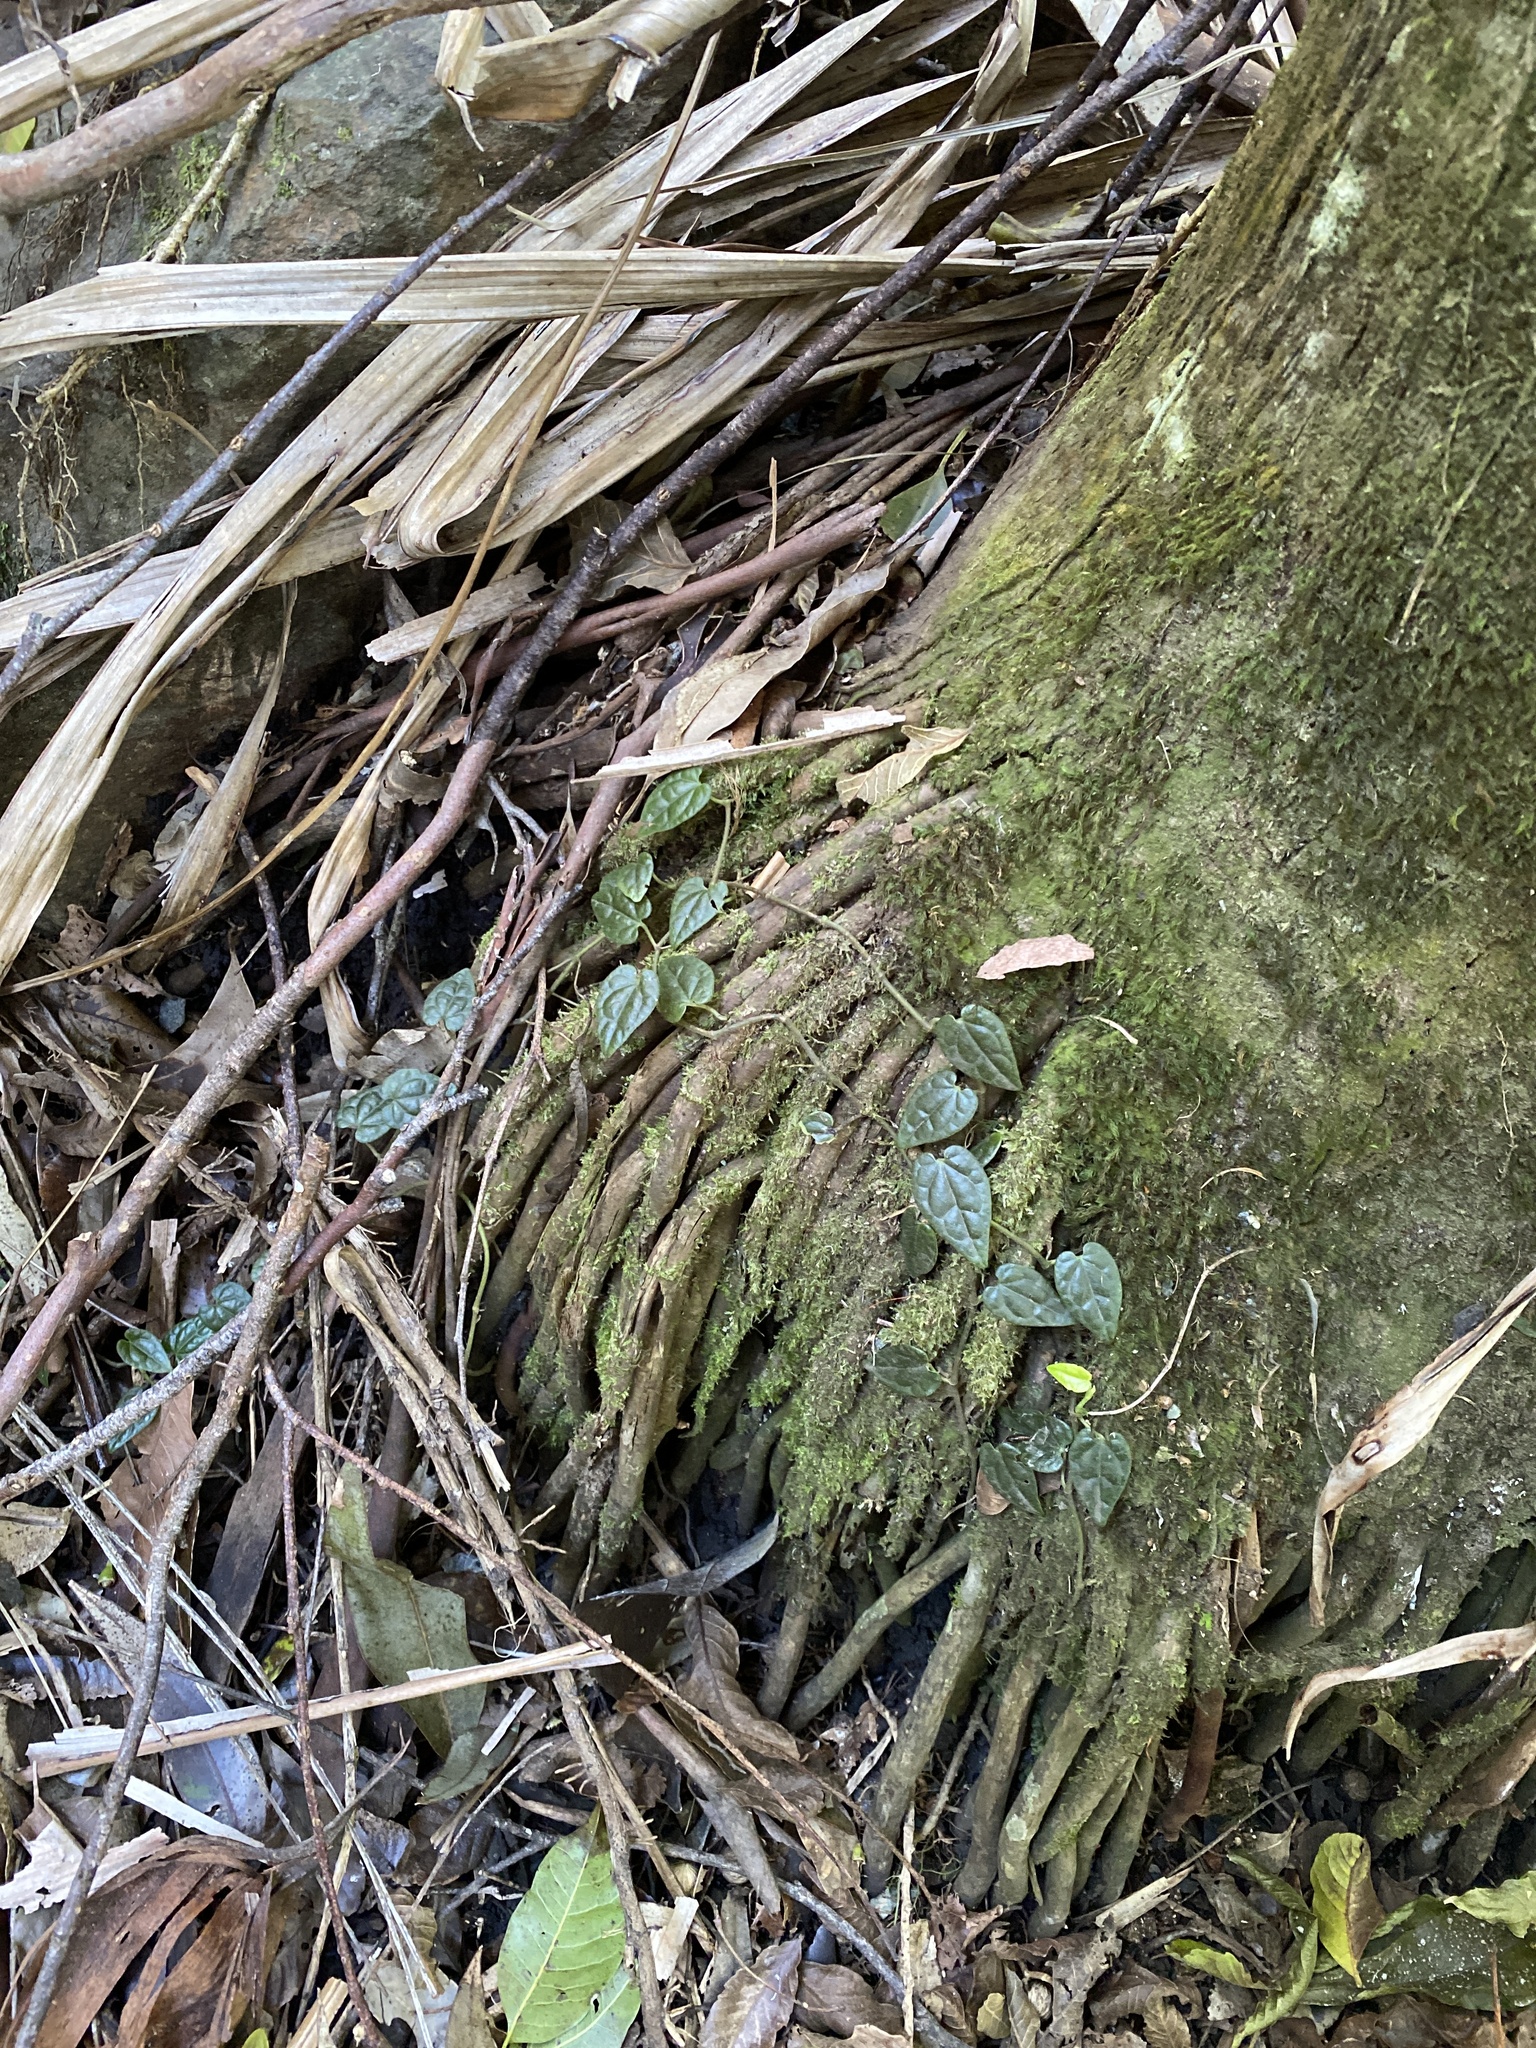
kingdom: Plantae
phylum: Tracheophyta
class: Magnoliopsida
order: Piperales
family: Piperaceae
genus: Piper
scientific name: Piper hederaceum
